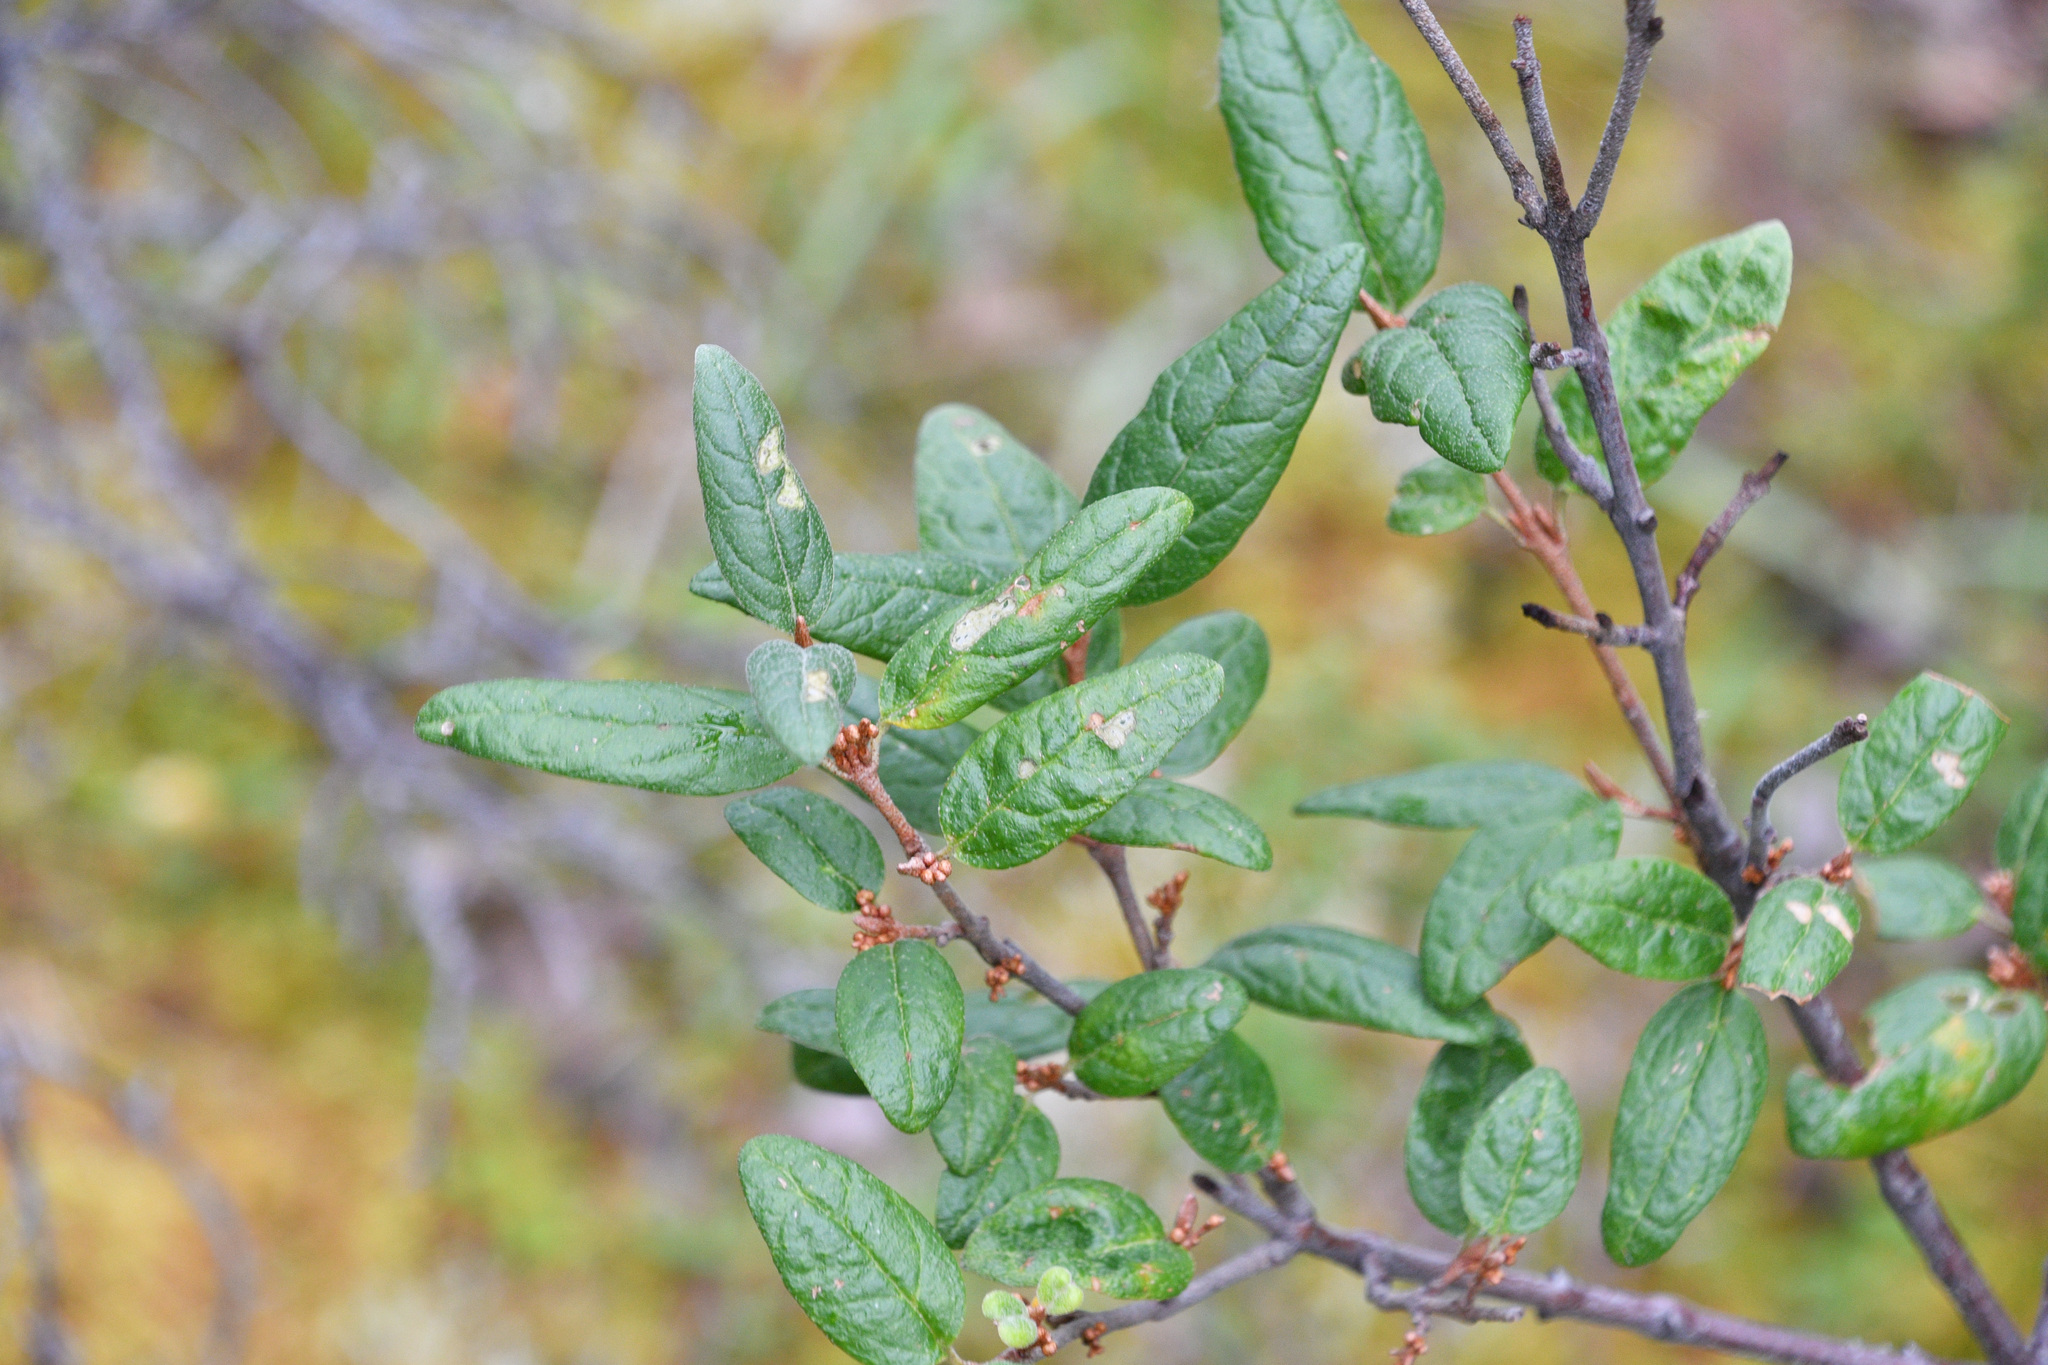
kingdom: Plantae
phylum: Tracheophyta
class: Magnoliopsida
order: Rosales
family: Elaeagnaceae
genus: Shepherdia
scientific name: Shepherdia canadensis
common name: Soapberry
